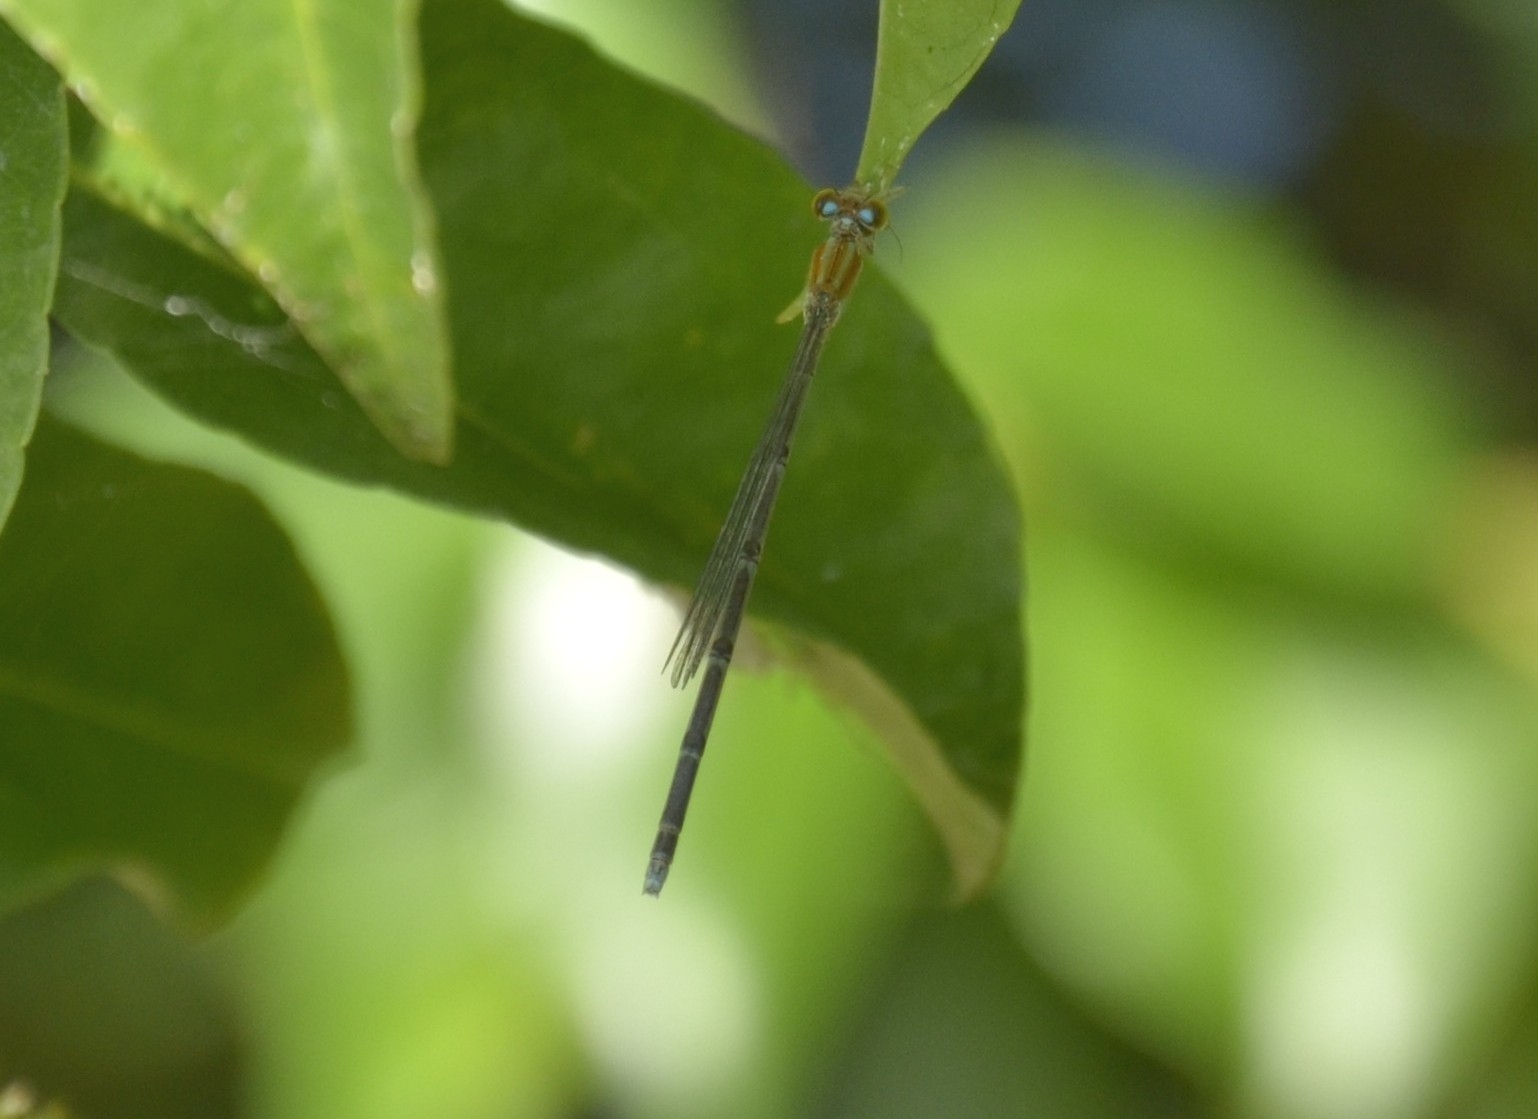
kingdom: Animalia
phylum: Arthropoda
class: Insecta
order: Odonata
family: Coenagrionidae
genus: Pseudagrion
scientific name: Pseudagrion microcephalum
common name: Blue riverdamsel
